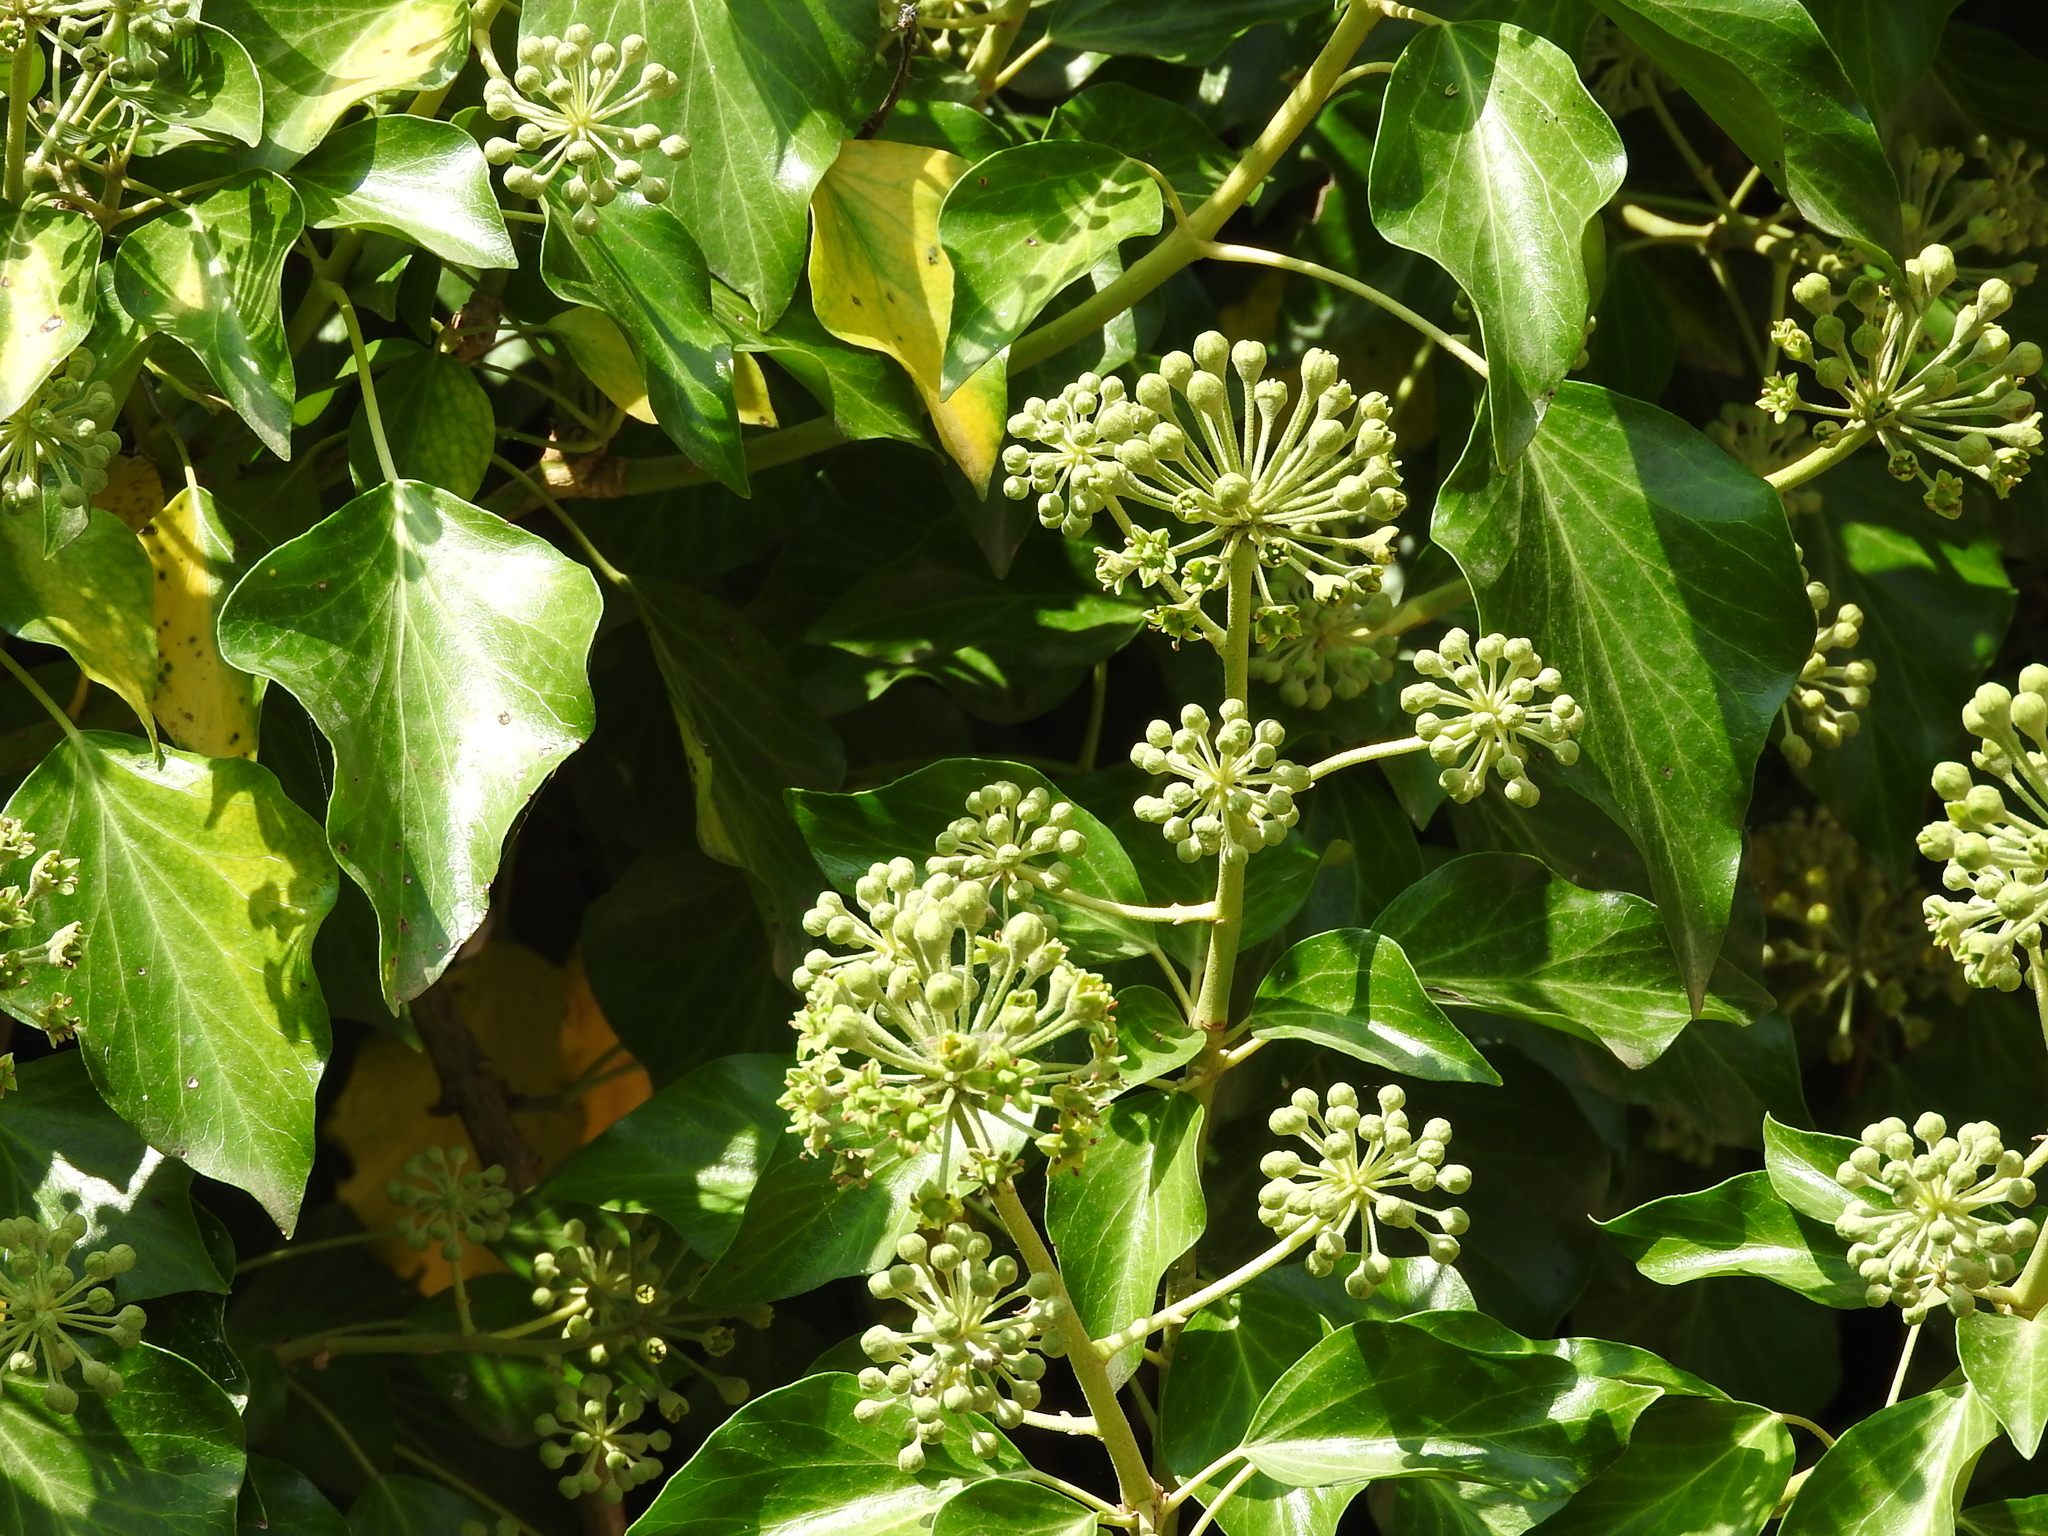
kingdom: Plantae
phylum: Tracheophyta
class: Magnoliopsida
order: Apiales
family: Araliaceae
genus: Hedera
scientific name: Hedera helix
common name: Ivy
